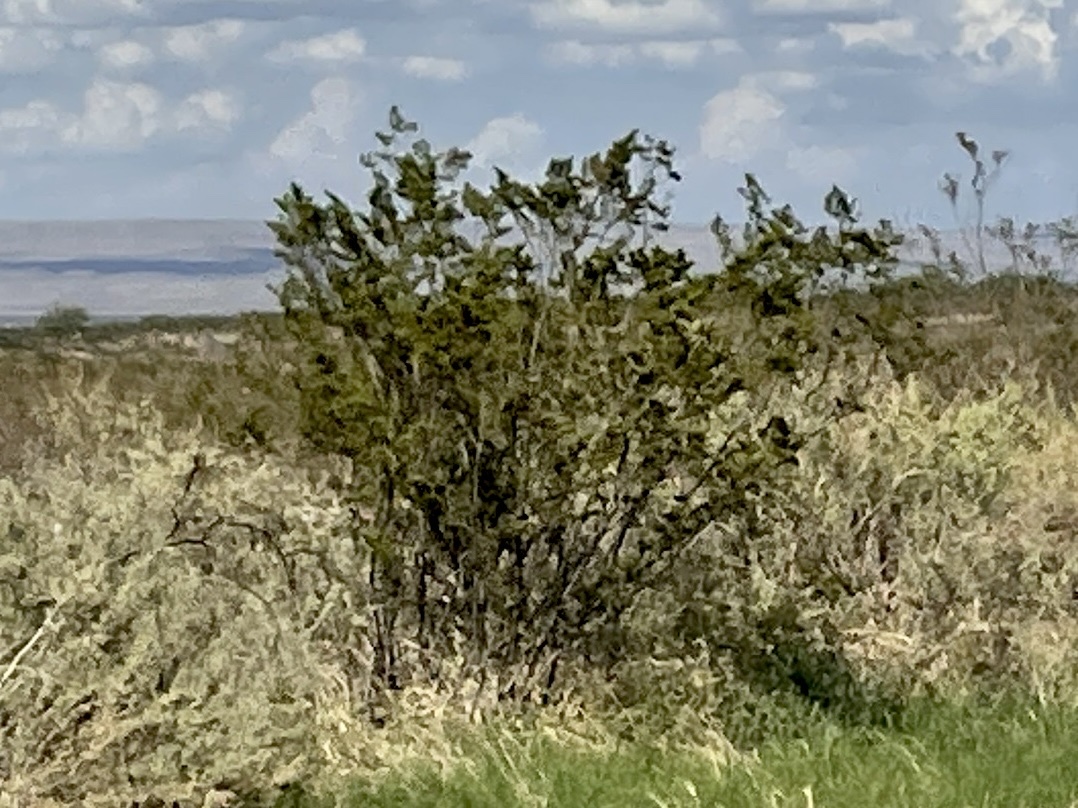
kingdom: Plantae
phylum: Tracheophyta
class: Magnoliopsida
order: Zygophyllales
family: Zygophyllaceae
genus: Larrea
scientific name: Larrea tridentata
